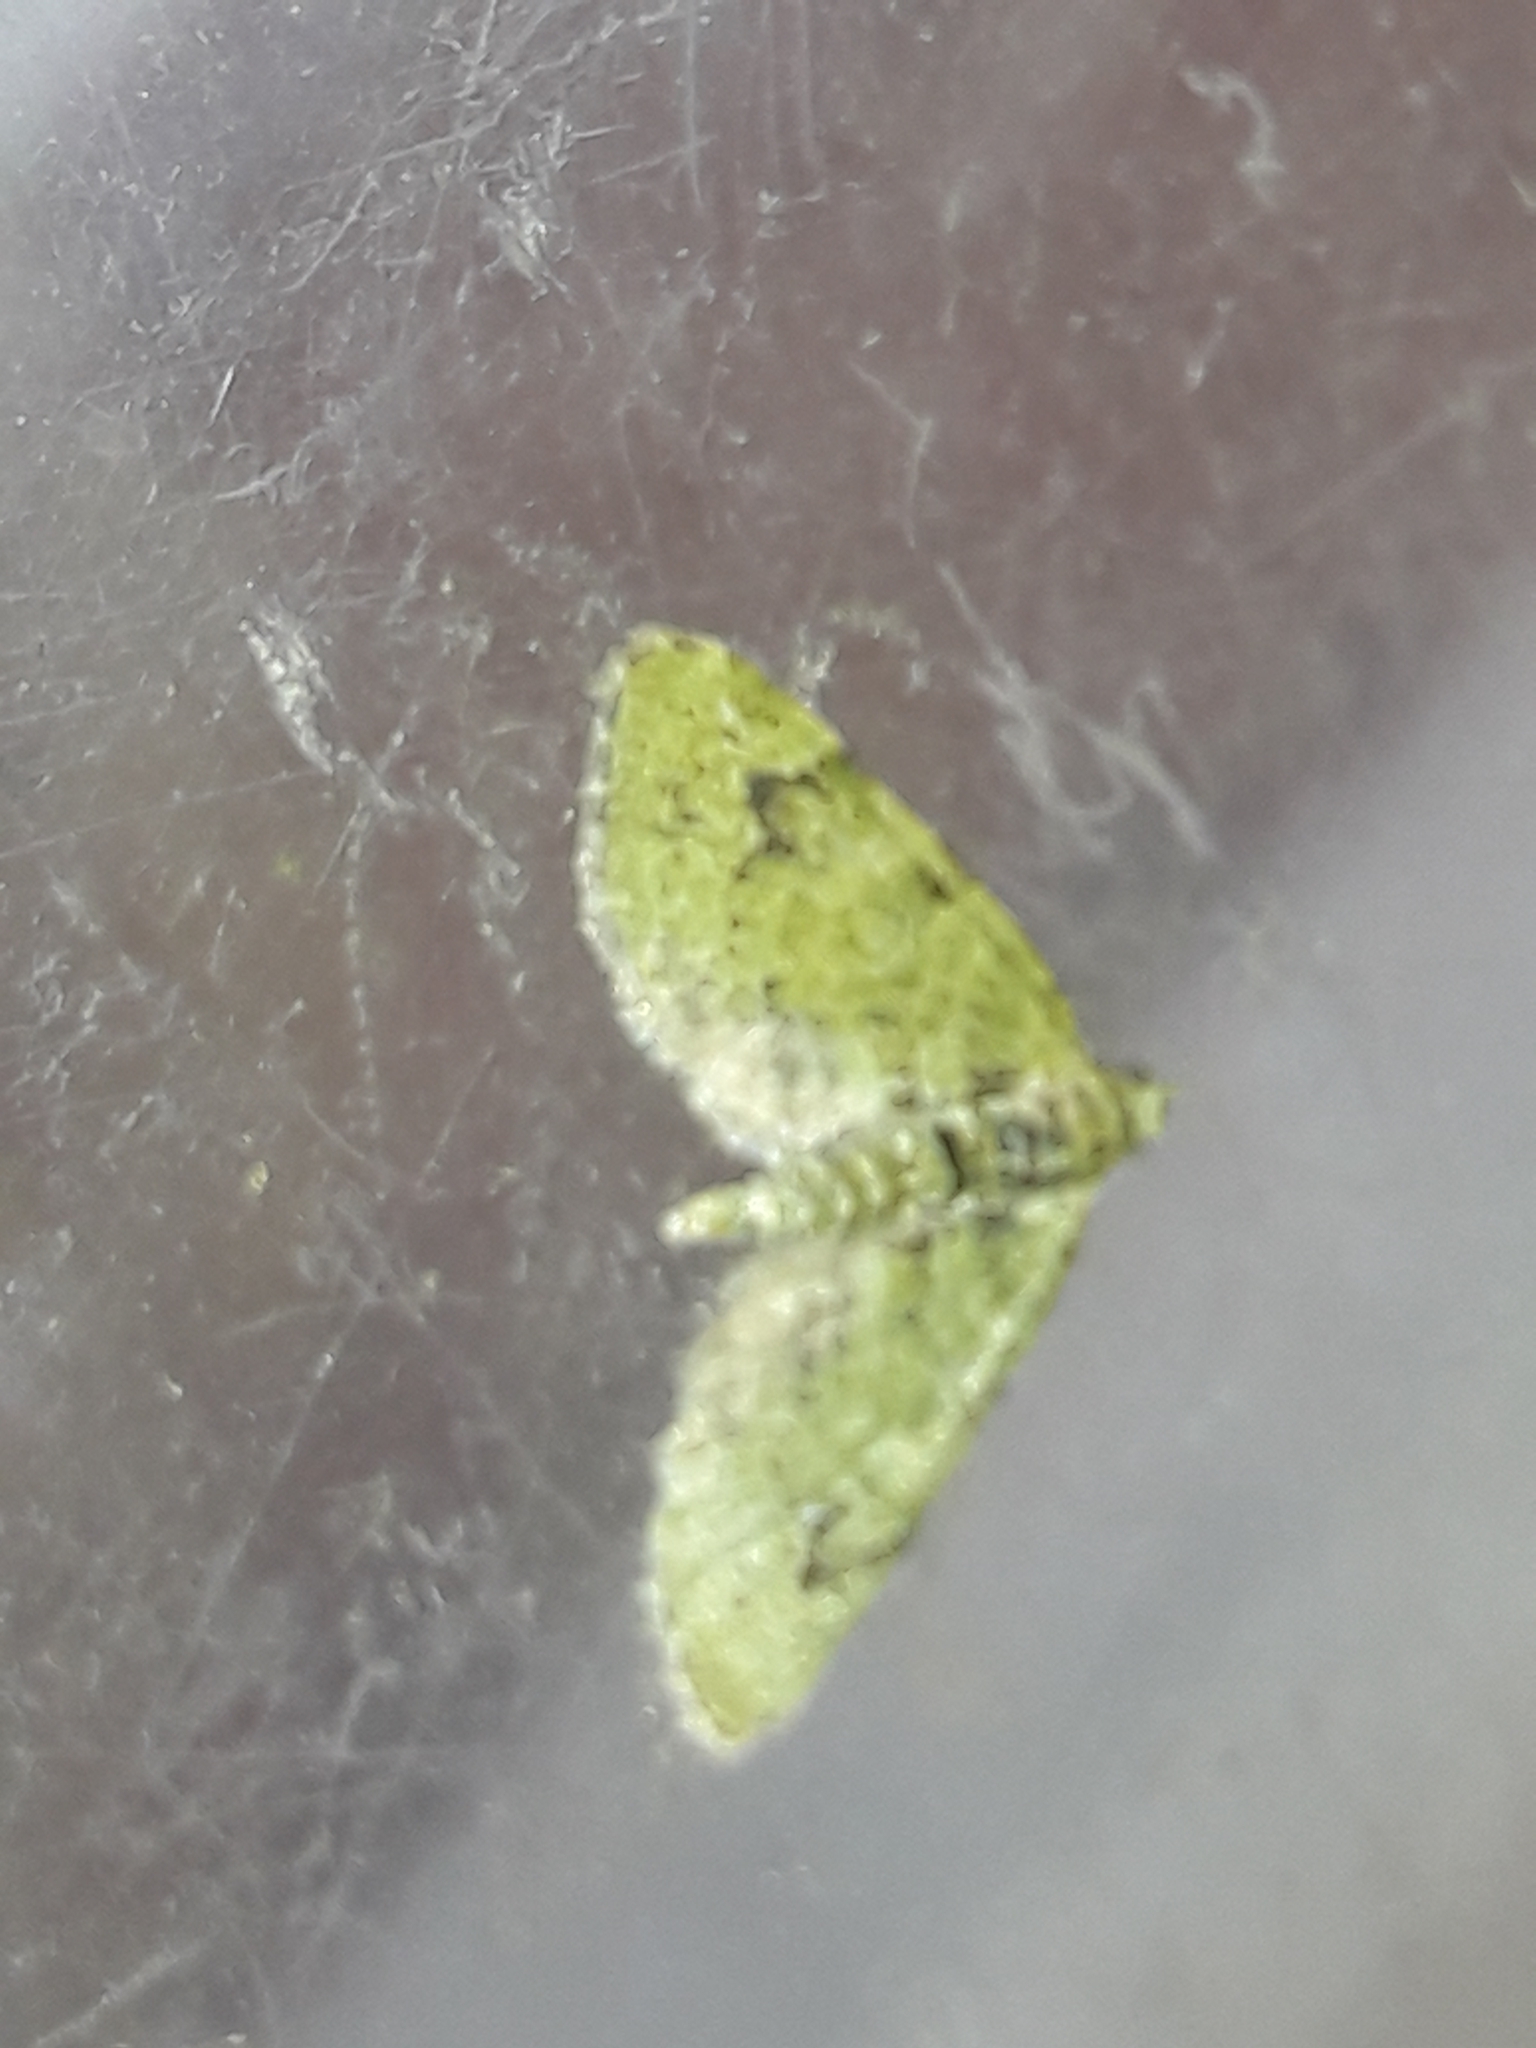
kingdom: Animalia
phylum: Arthropoda
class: Insecta
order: Lepidoptera
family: Geometridae
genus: Chloroclystis
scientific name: Chloroclystis v-ata
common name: V-pug
